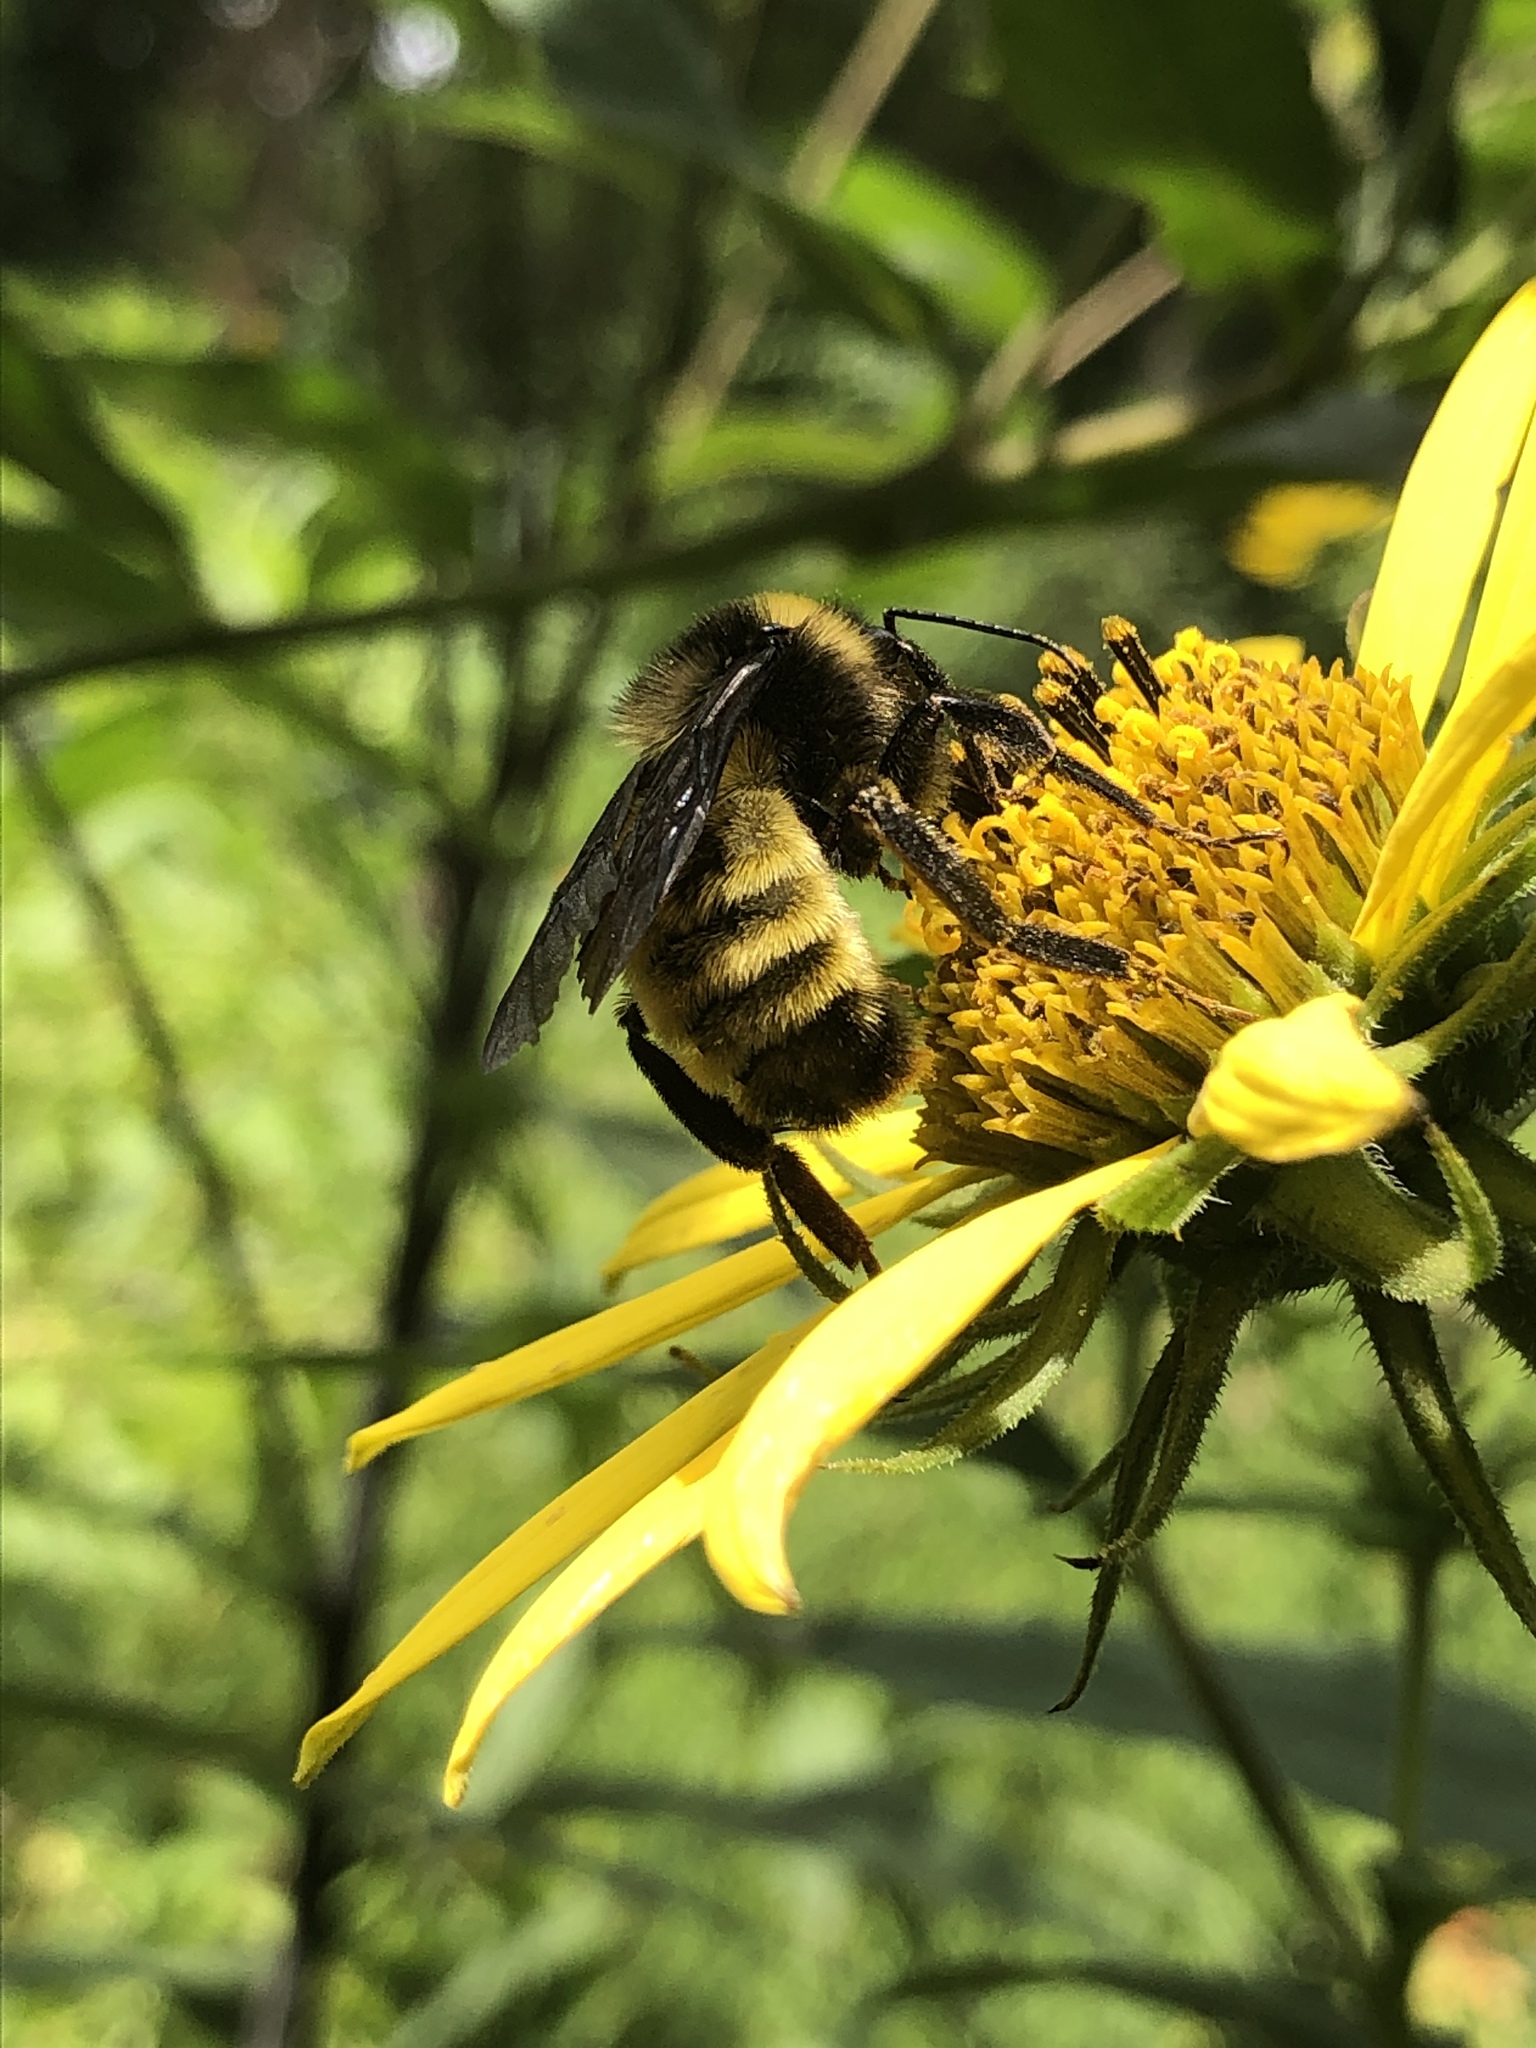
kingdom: Animalia
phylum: Arthropoda
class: Insecta
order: Hymenoptera
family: Apidae
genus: Bombus
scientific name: Bombus pensylvanicus
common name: Bumble bee
